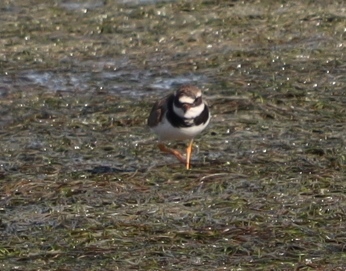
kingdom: Animalia
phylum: Chordata
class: Aves
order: Charadriiformes
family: Charadriidae
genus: Charadrius
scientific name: Charadrius hiaticula
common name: Common ringed plover
